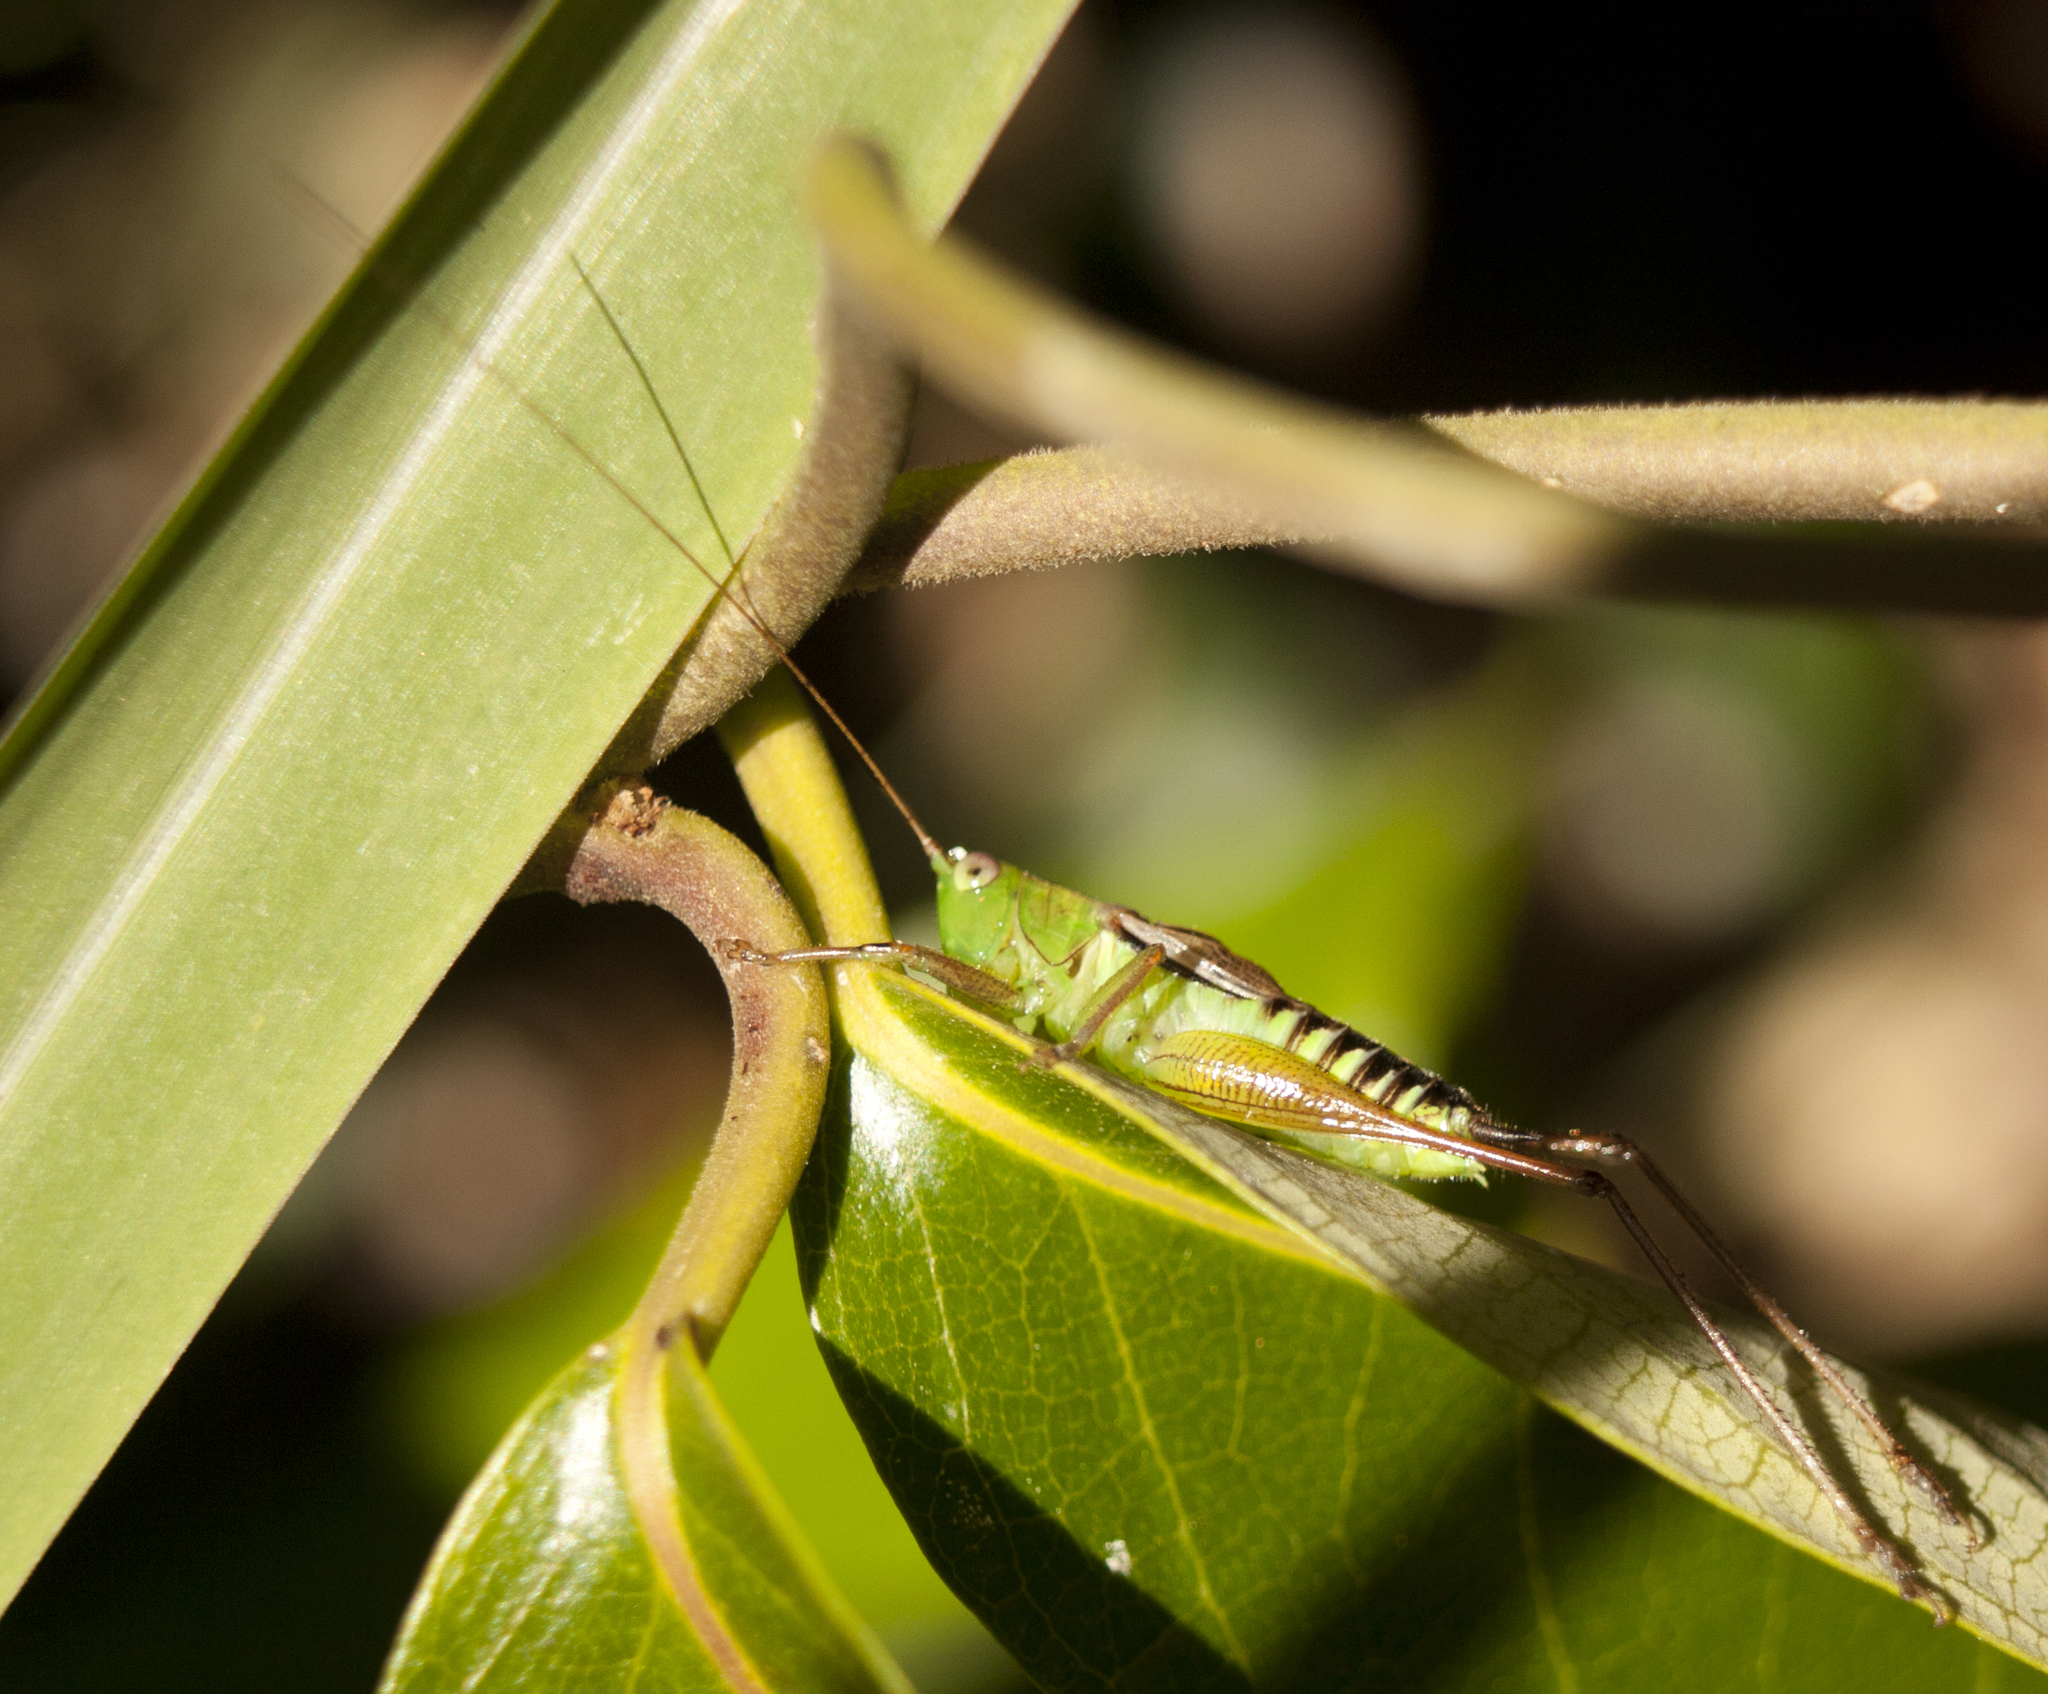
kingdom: Animalia
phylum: Arthropoda
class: Insecta
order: Orthoptera
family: Tettigoniidae
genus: Conocephalus
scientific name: Conocephalus semivittatus
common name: Blackish meadow katydid
